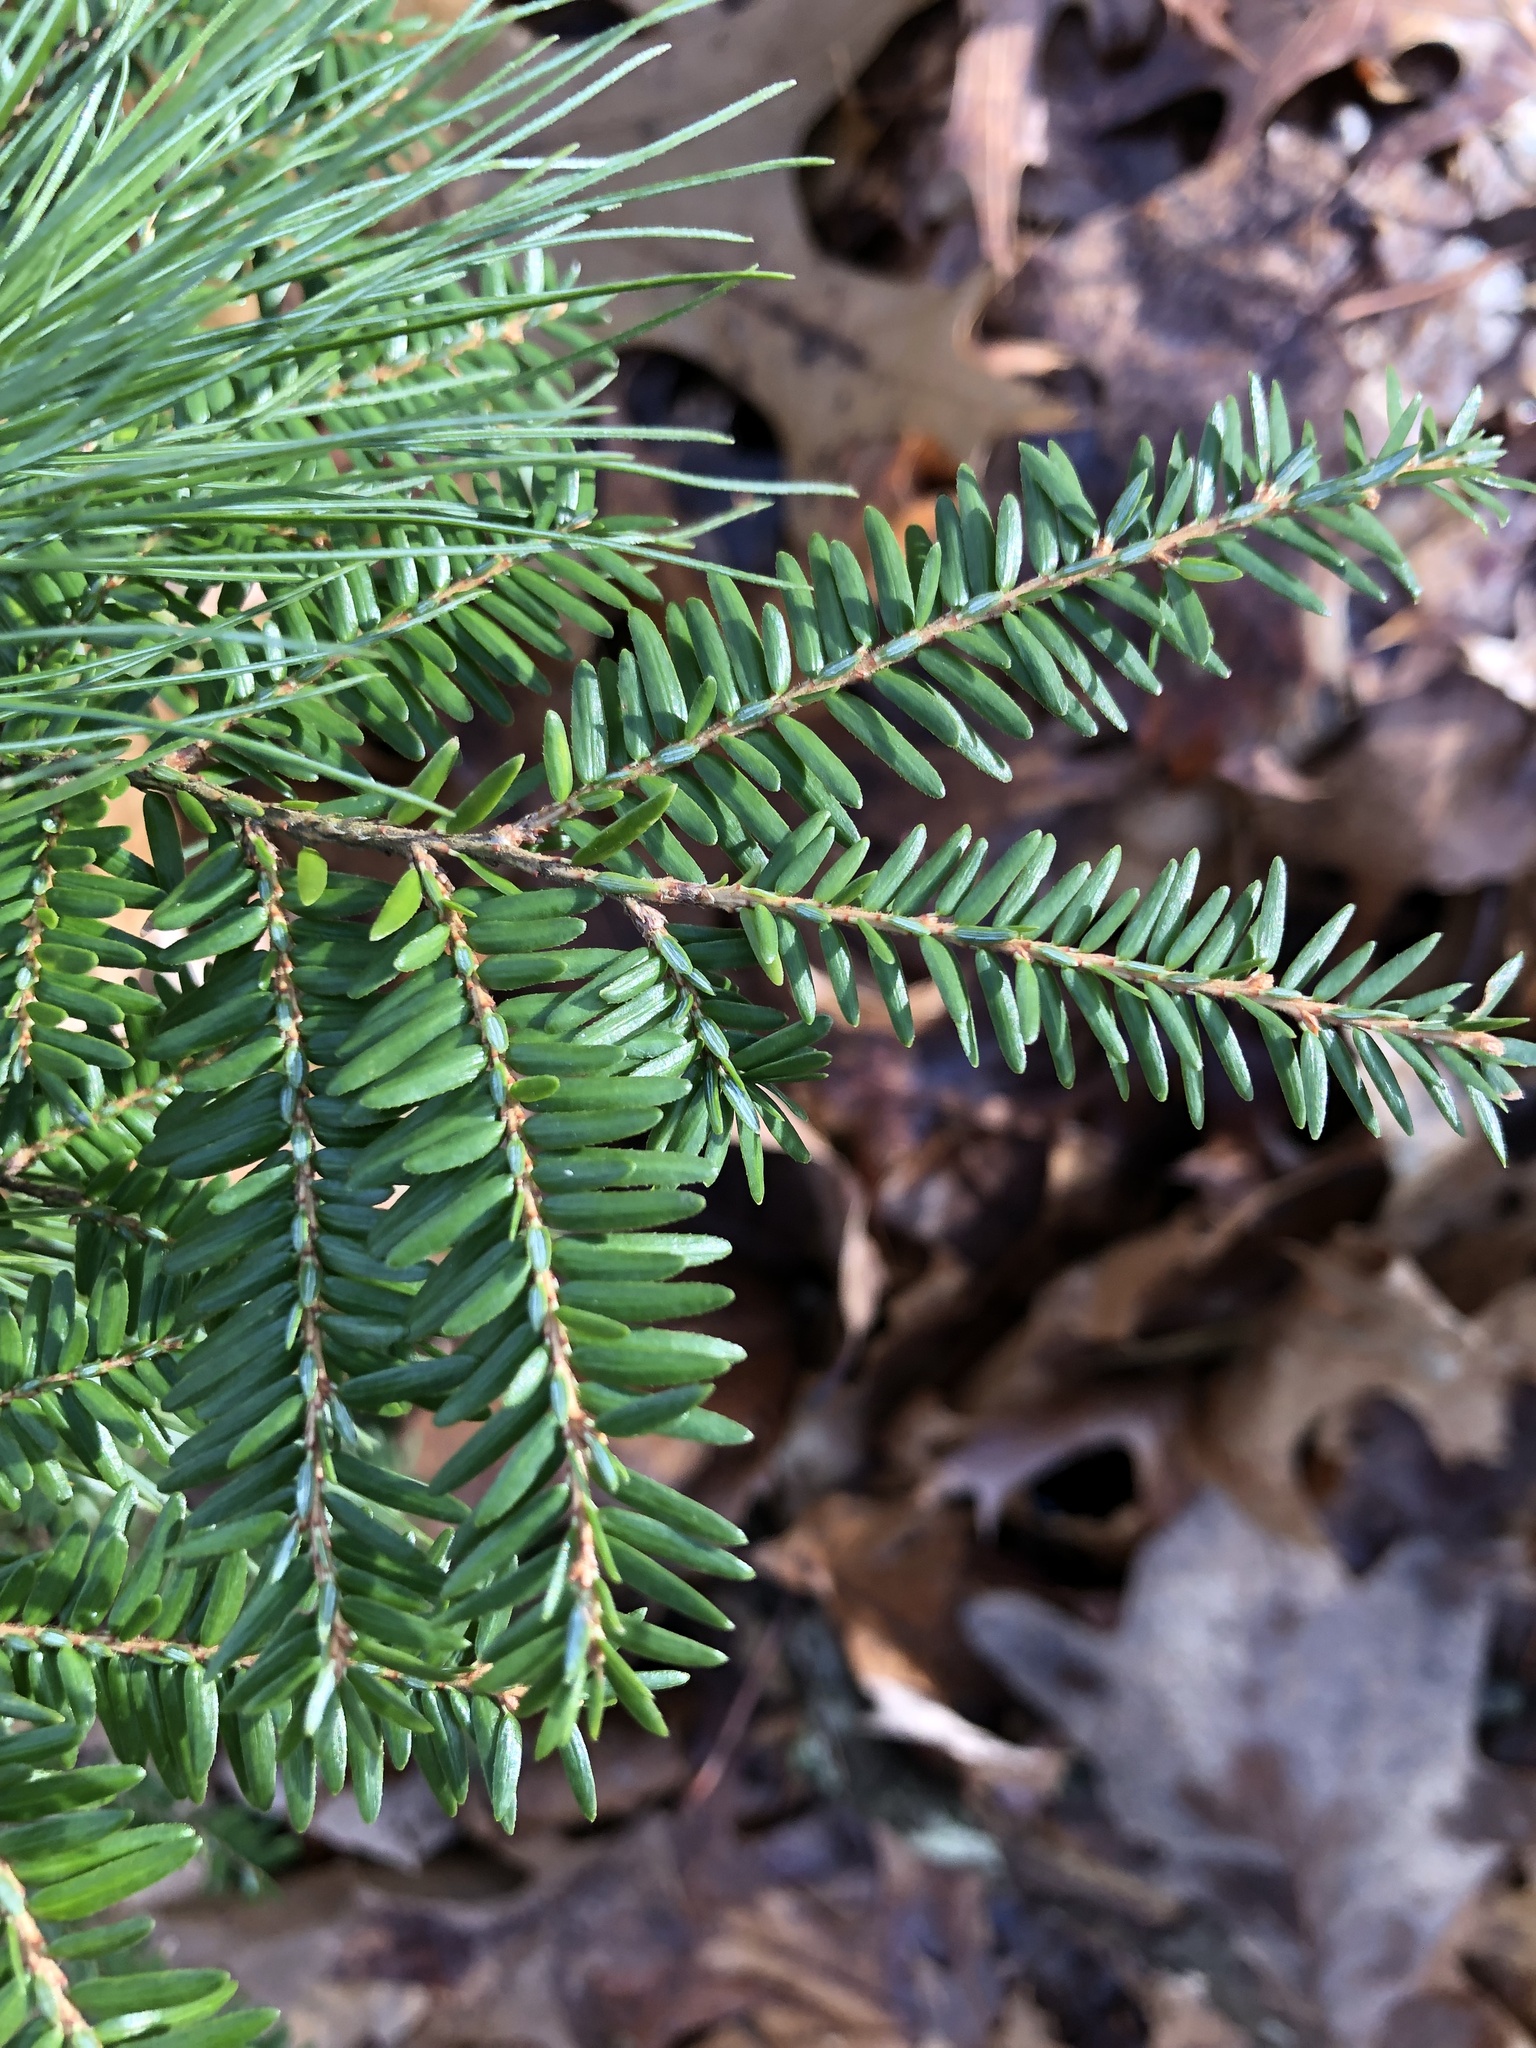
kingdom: Plantae
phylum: Tracheophyta
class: Pinopsida
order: Pinales
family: Pinaceae
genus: Tsuga
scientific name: Tsuga canadensis
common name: Eastern hemlock
